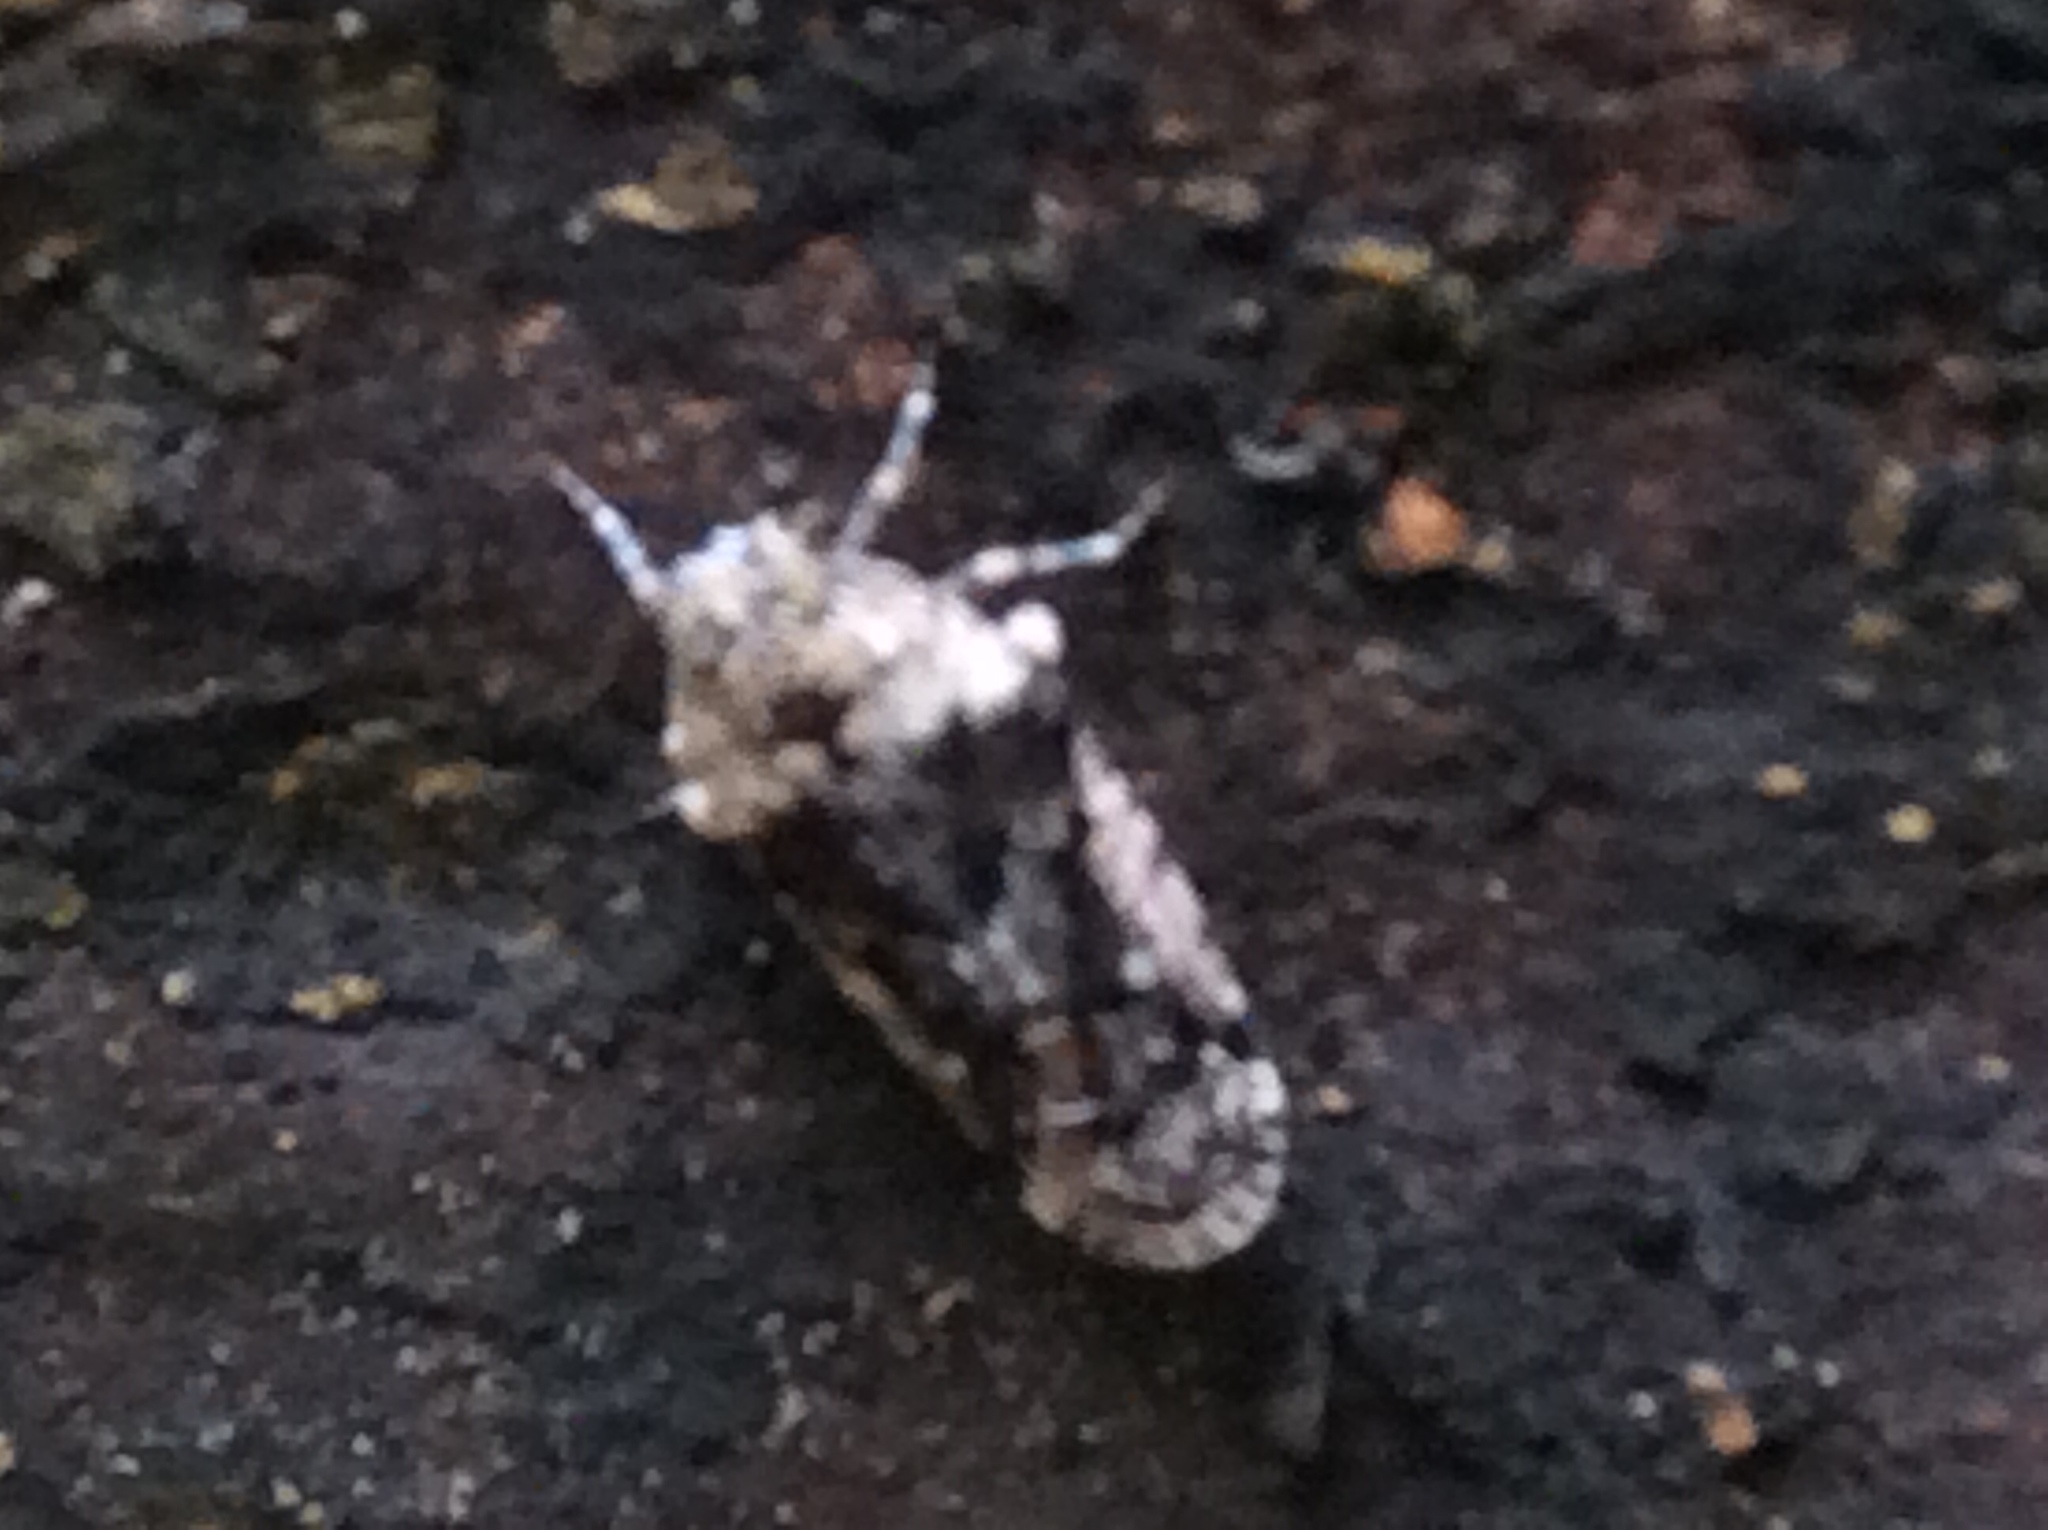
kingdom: Animalia
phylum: Arthropoda
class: Insecta
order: Hemiptera
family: Achilidae
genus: Catonia
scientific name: Catonia nava
